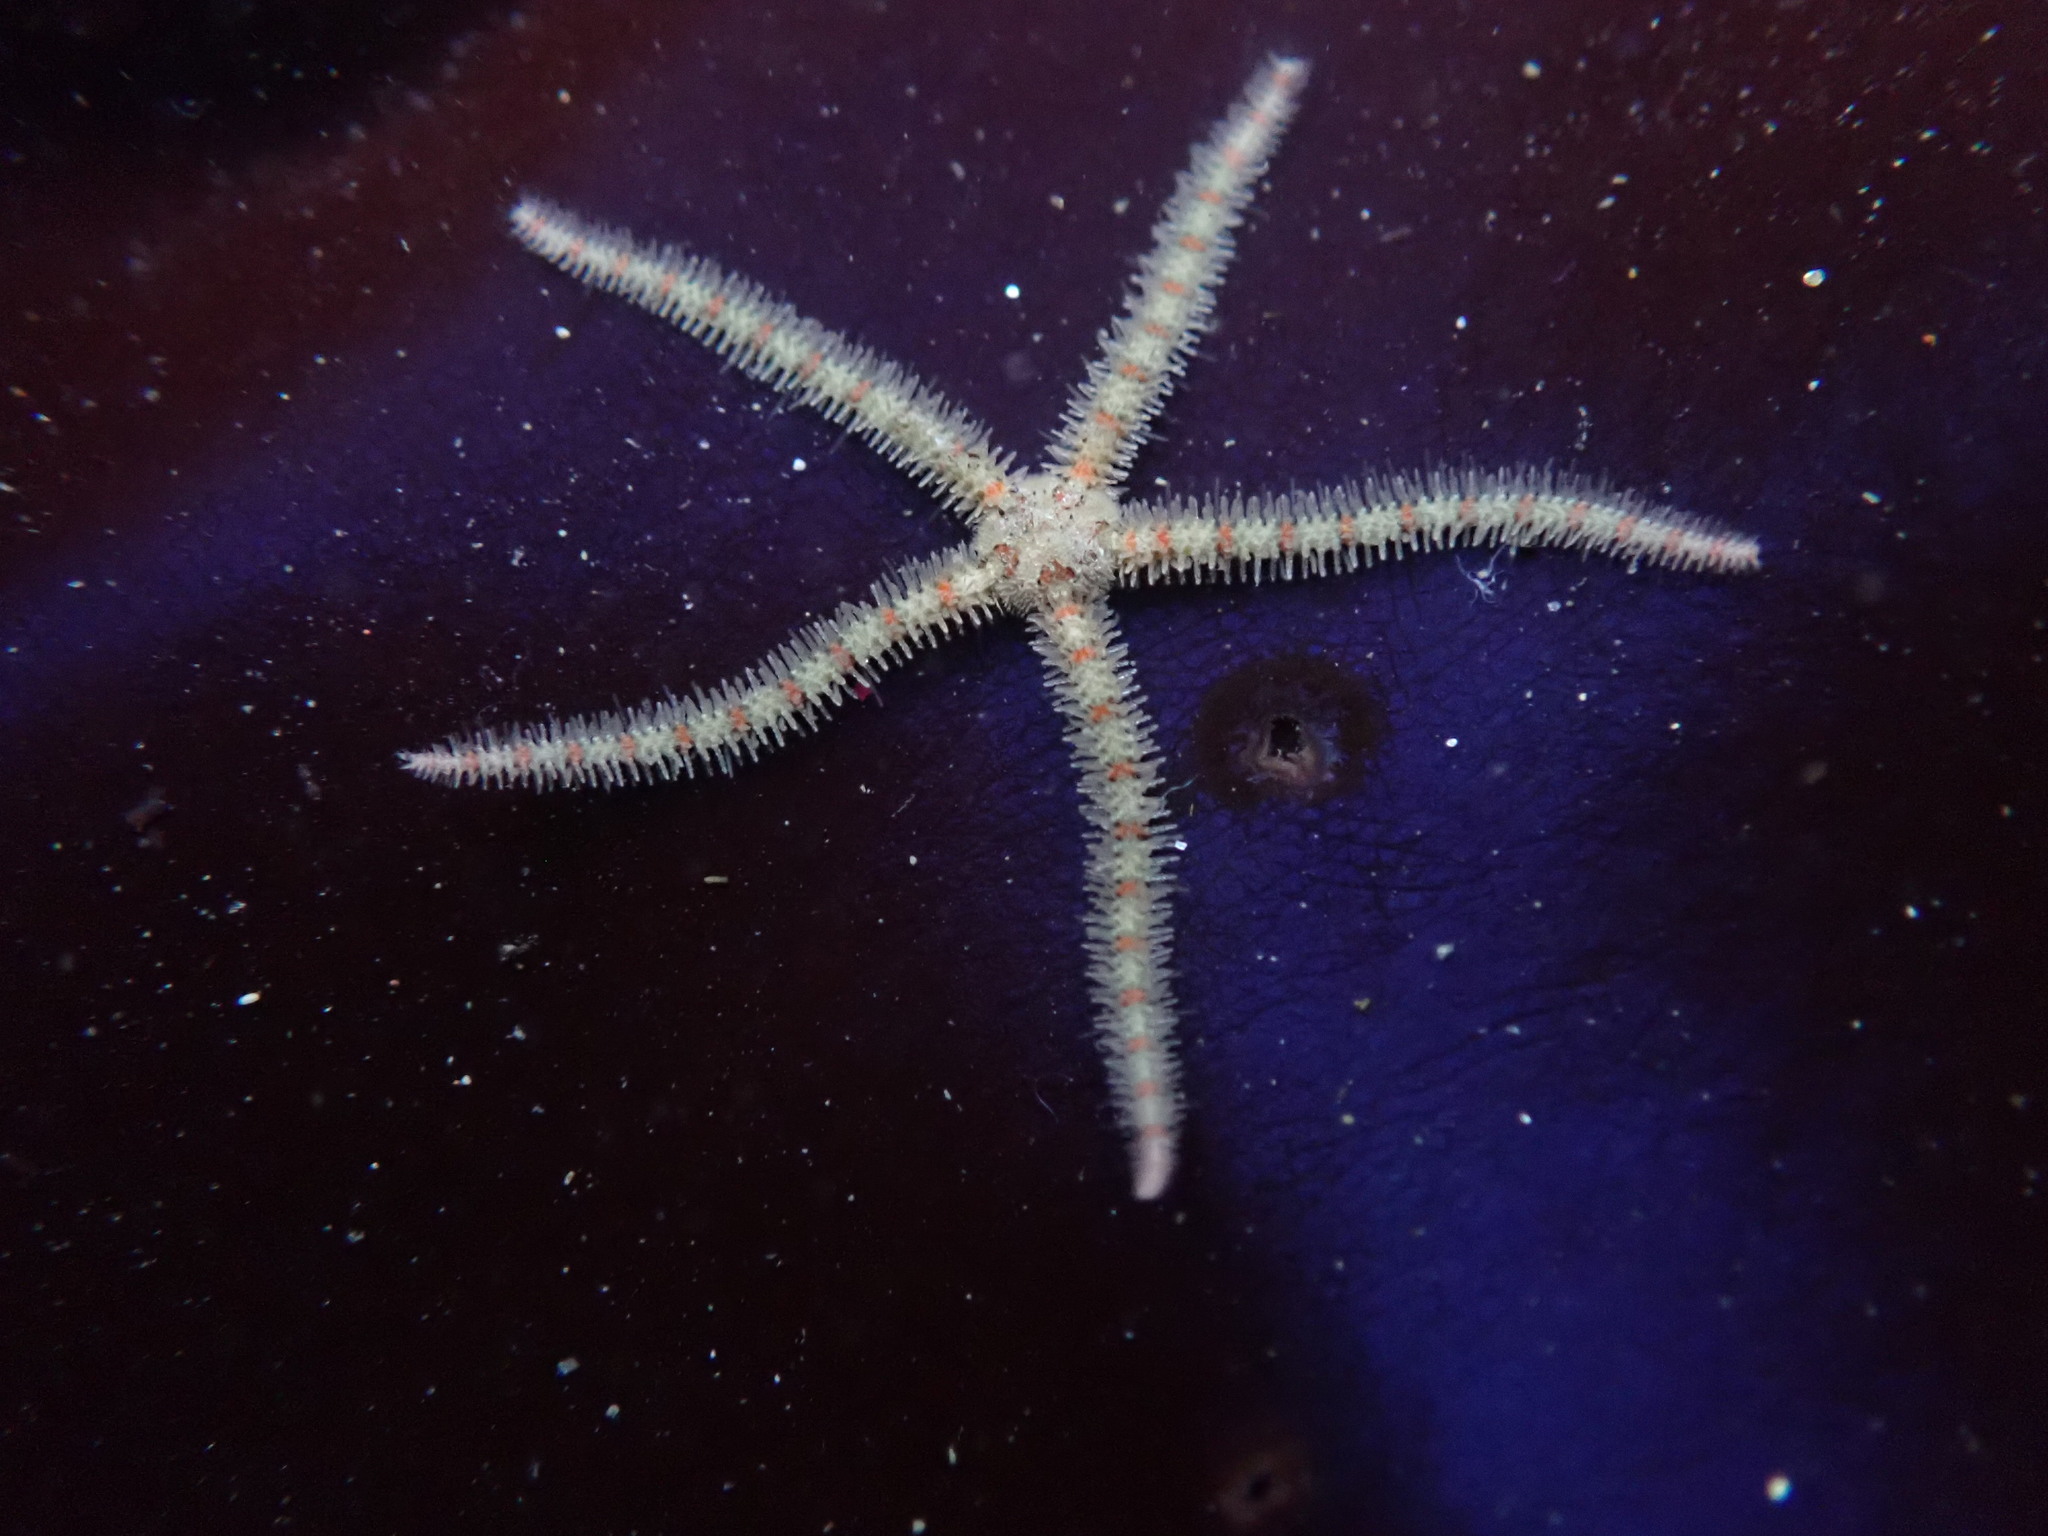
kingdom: Animalia
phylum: Echinodermata
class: Ophiuroidea
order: Amphilepidida
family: Ophiotrichidae
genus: Ophiothrix
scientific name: Ophiothrix spiculata
